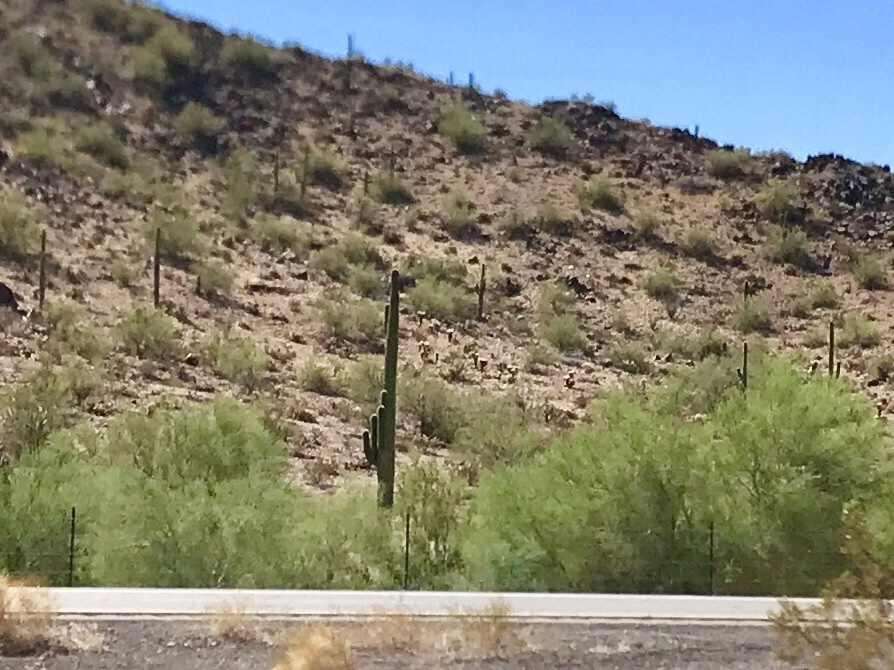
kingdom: Plantae
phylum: Tracheophyta
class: Magnoliopsida
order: Caryophyllales
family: Cactaceae
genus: Carnegiea
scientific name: Carnegiea gigantea
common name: Saguaro
